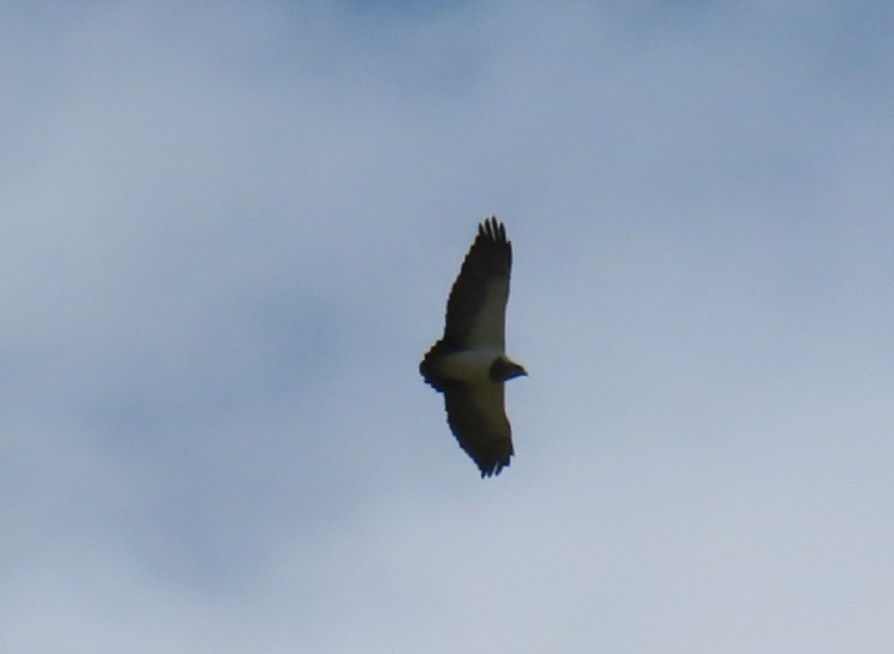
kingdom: Animalia
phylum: Chordata
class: Aves
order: Accipitriformes
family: Accipitridae
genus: Geranoaetus
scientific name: Geranoaetus melanoleucus
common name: Black-chested buzzard-eagle
